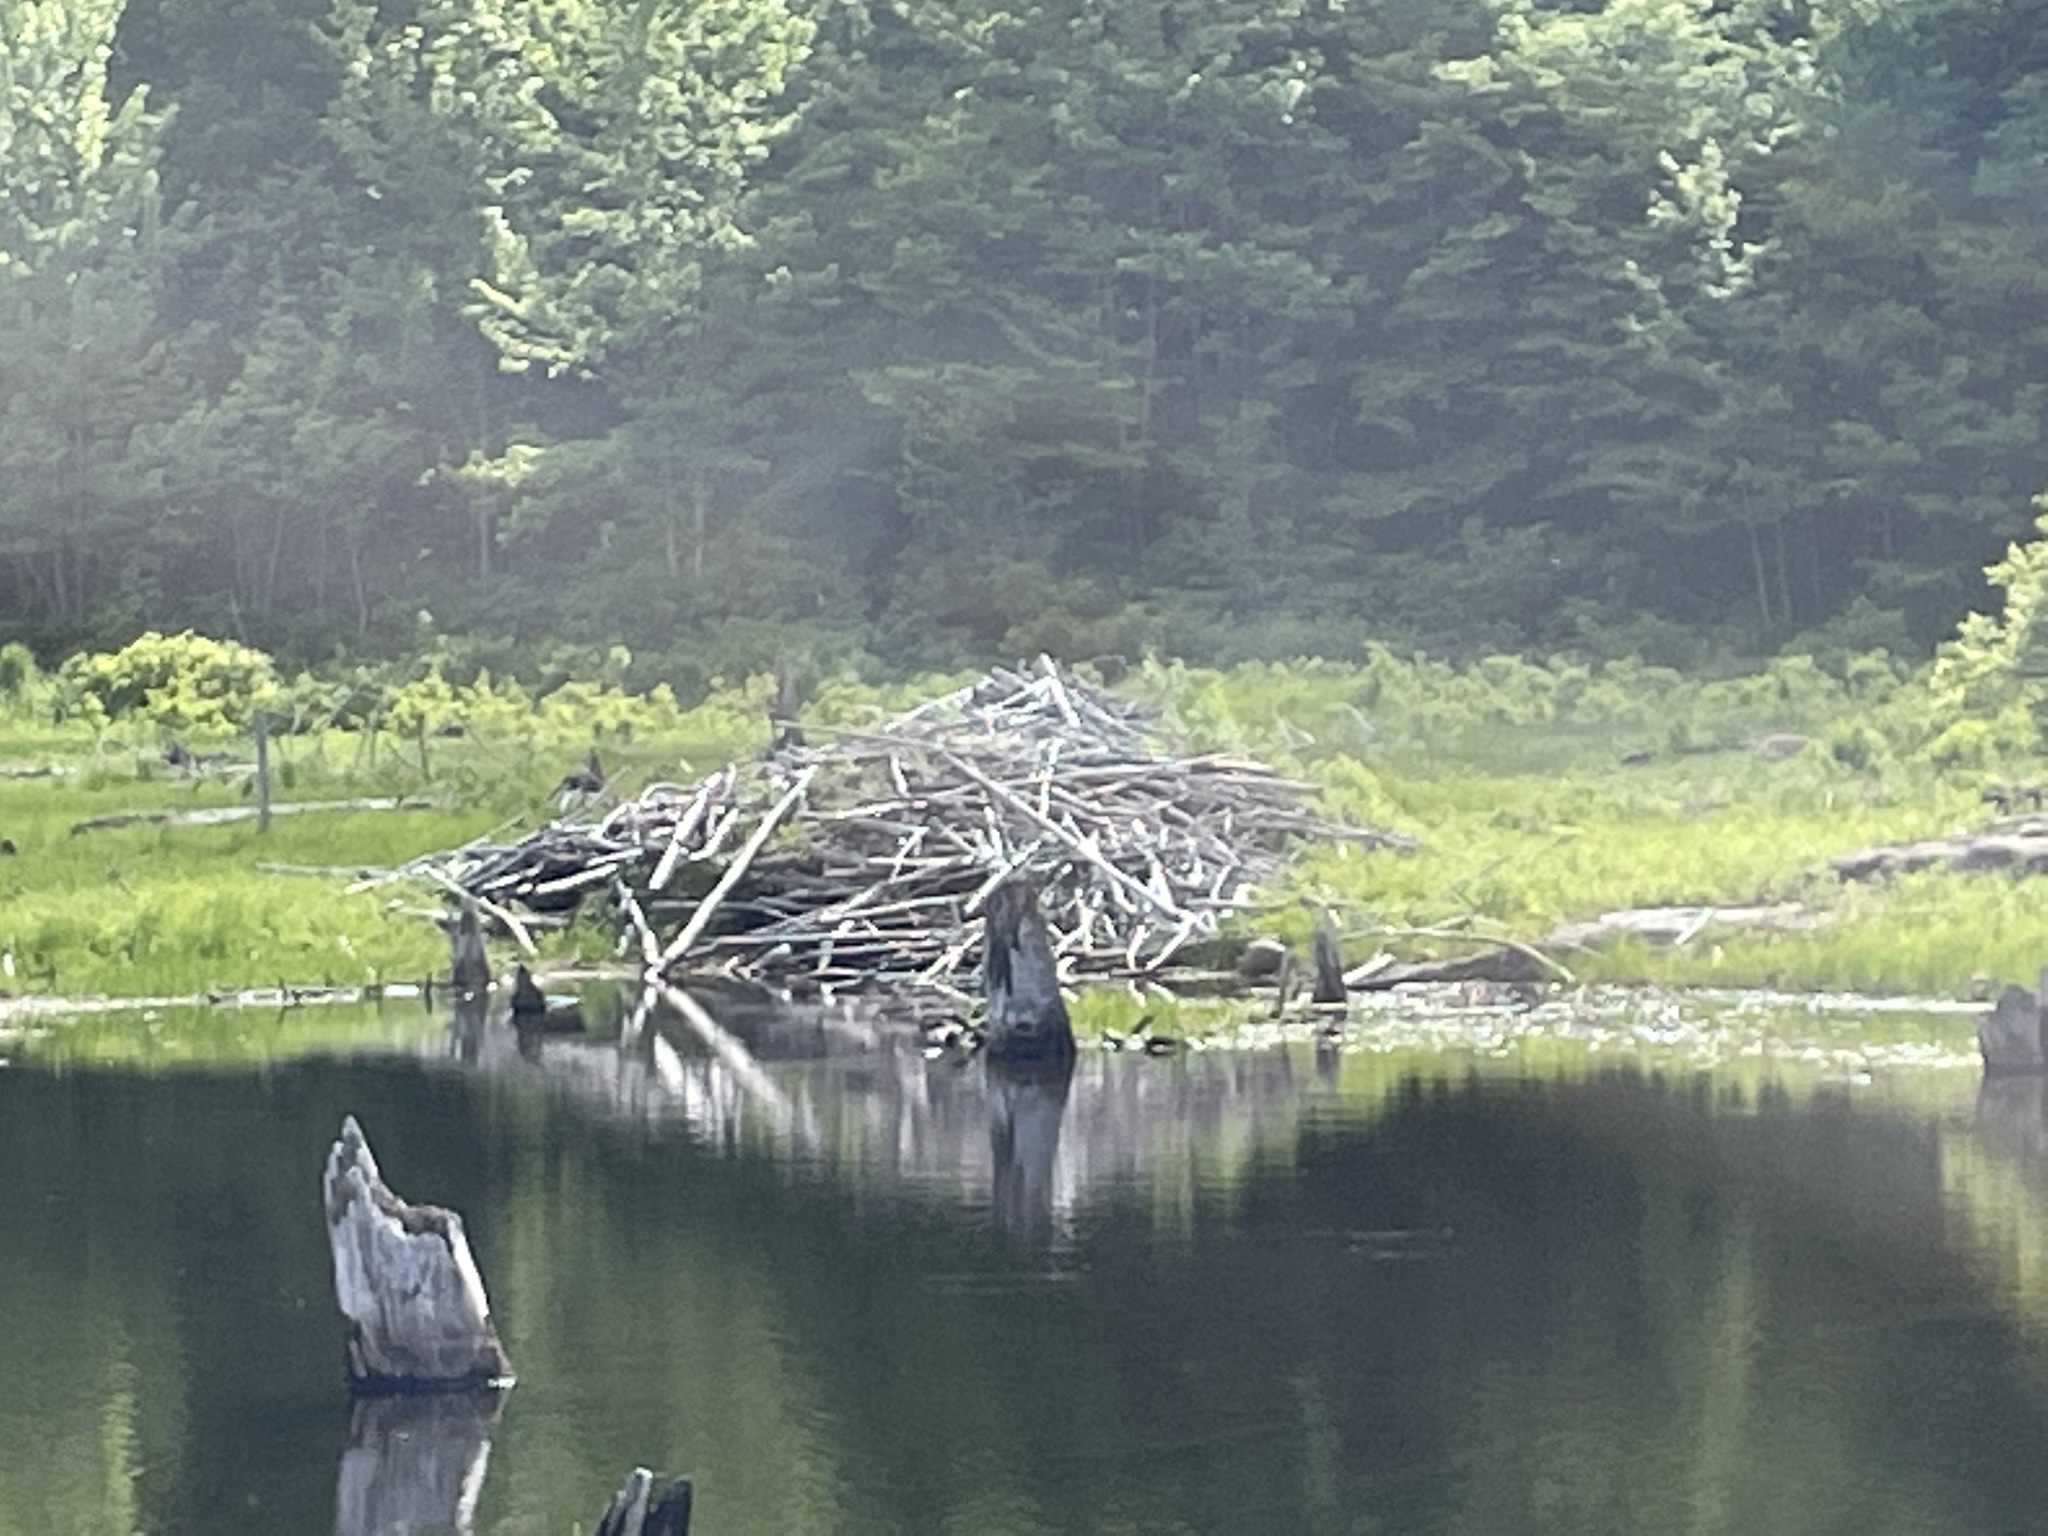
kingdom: Animalia
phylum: Chordata
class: Mammalia
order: Rodentia
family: Castoridae
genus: Castor
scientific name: Castor canadensis
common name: American beaver
